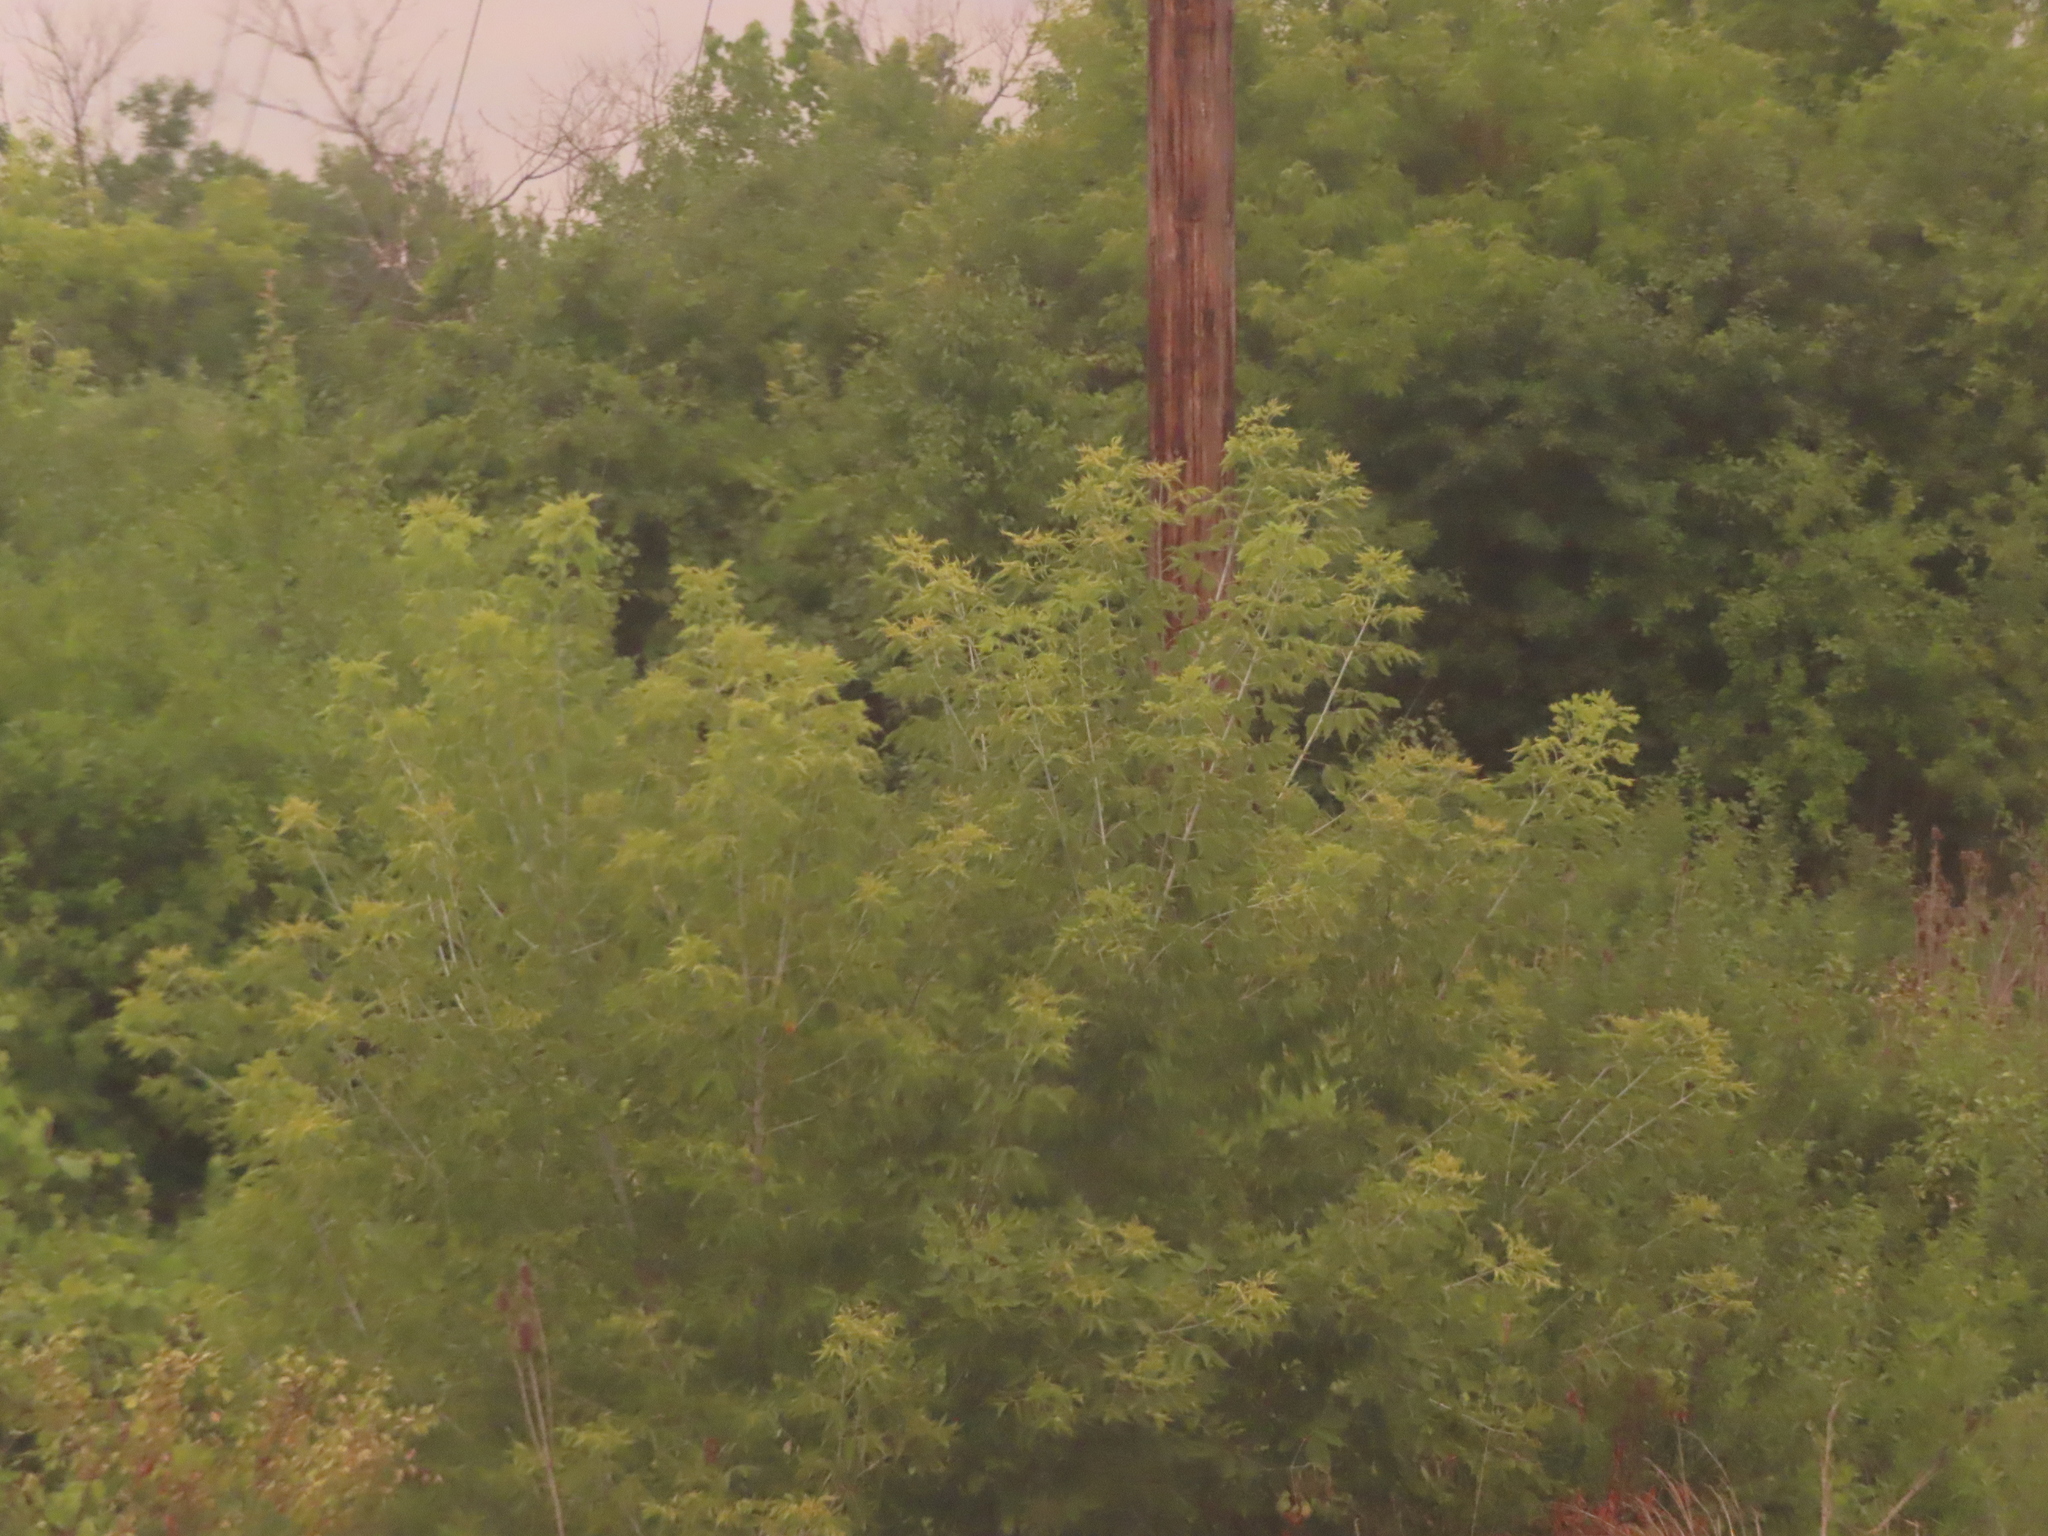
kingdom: Plantae
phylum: Tracheophyta
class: Magnoliopsida
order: Sapindales
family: Sapindaceae
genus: Acer
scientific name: Acer negundo
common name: Ashleaf maple
